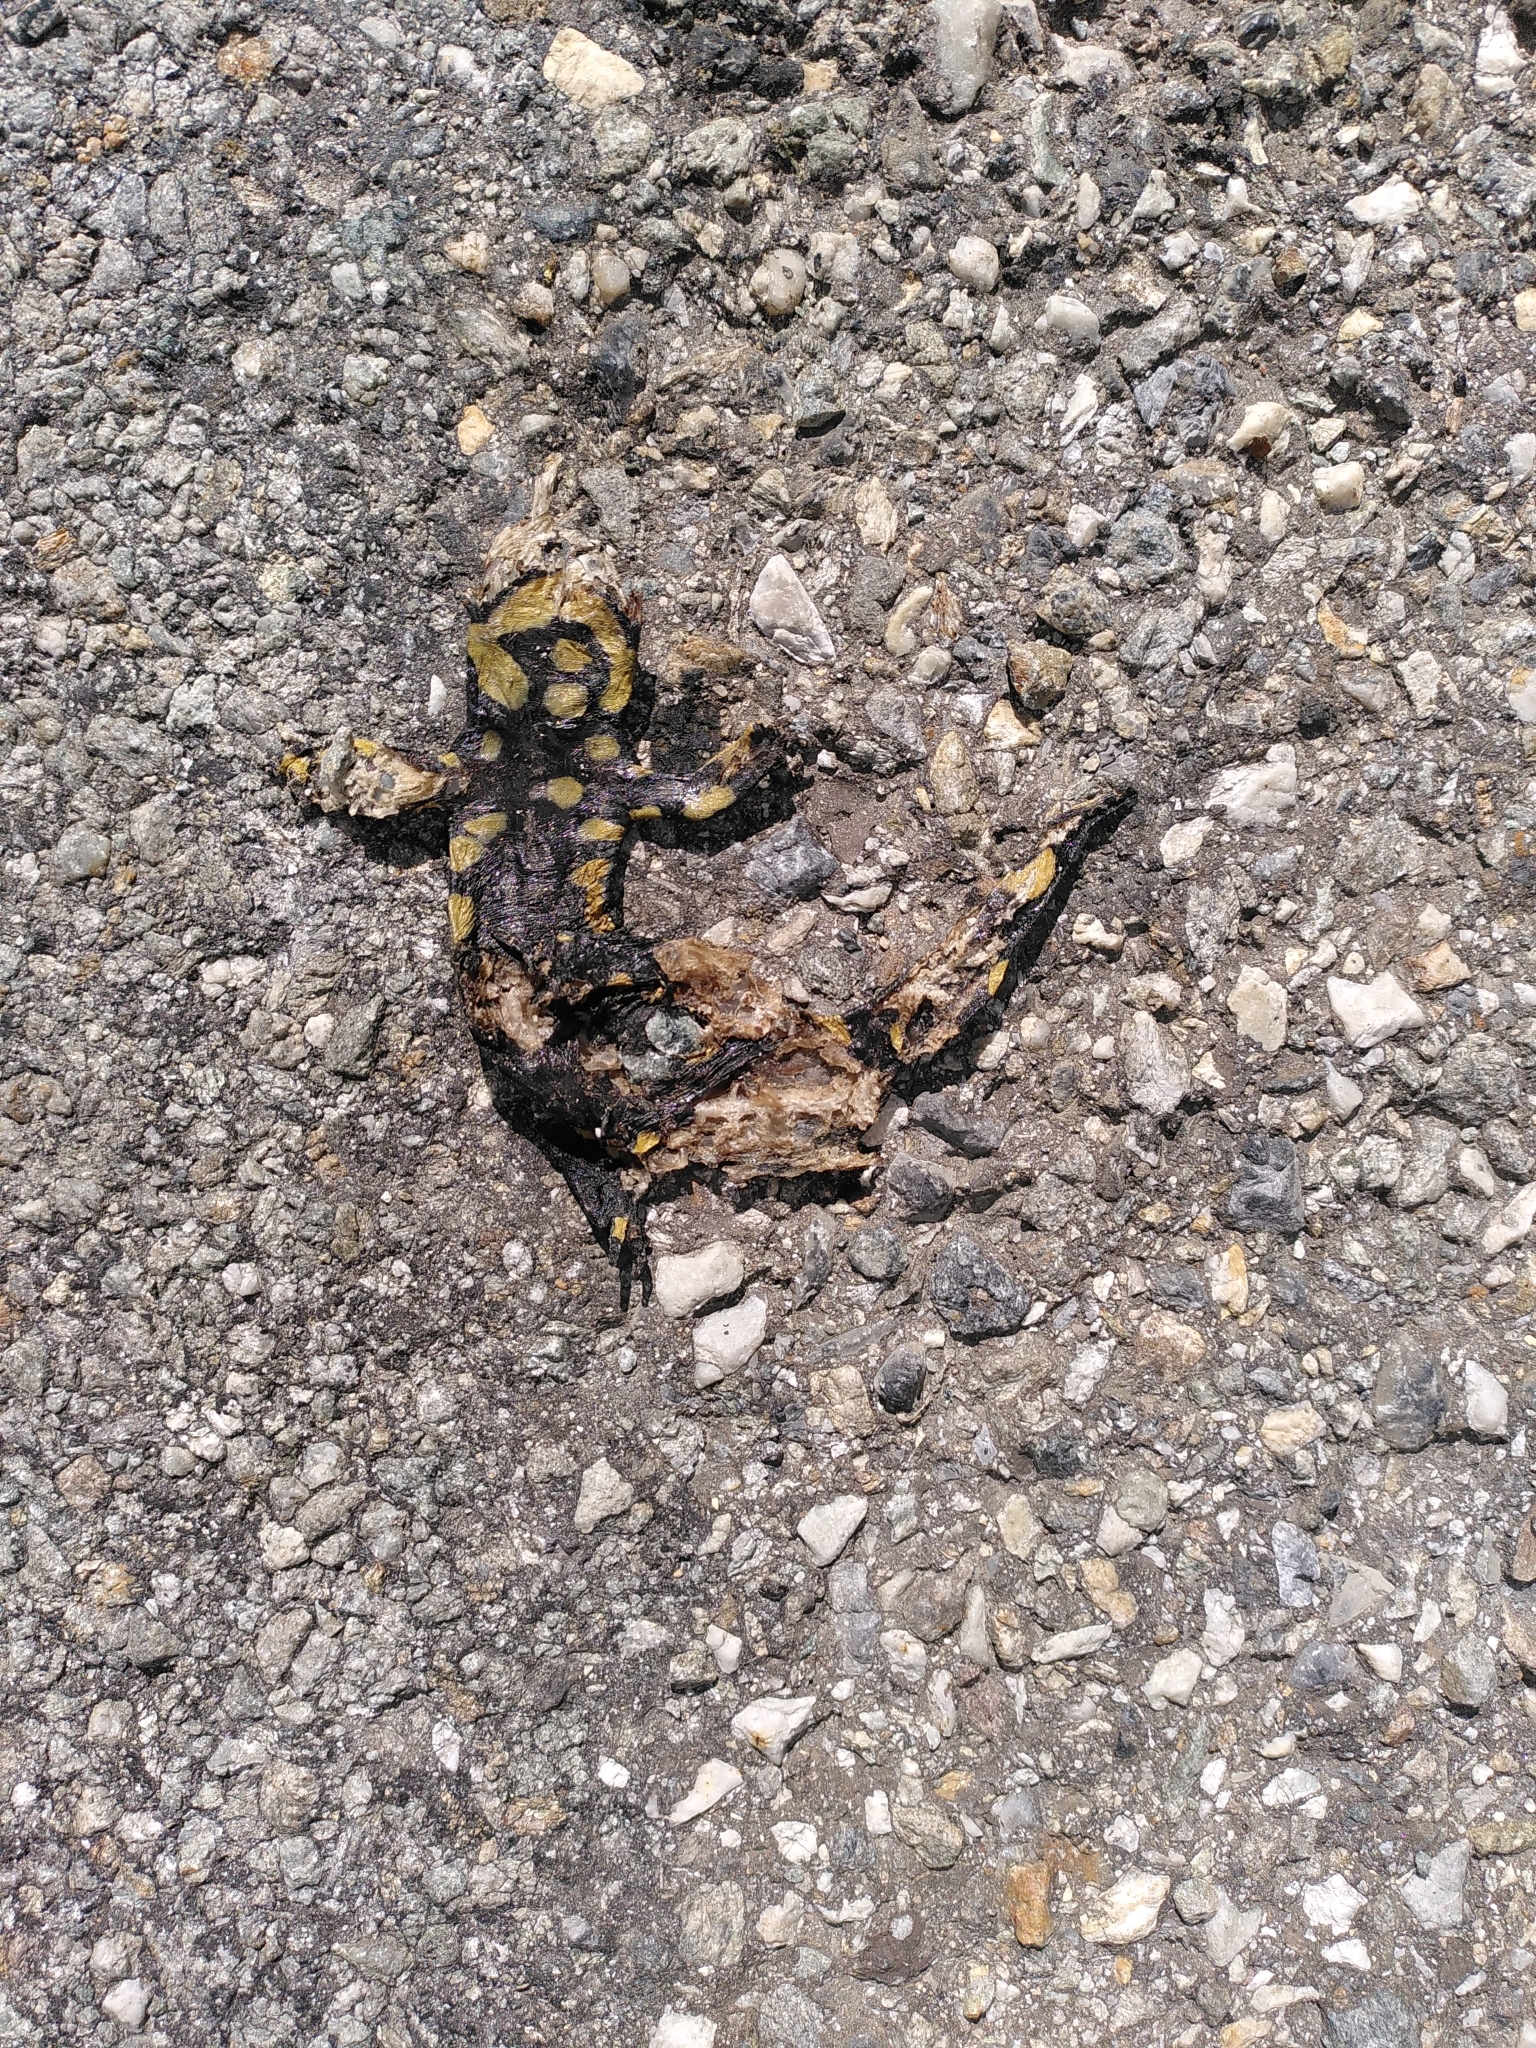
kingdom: Animalia
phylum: Chordata
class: Amphibia
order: Caudata
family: Salamandridae
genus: Salamandra
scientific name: Salamandra salamandra
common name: Fire salamander
